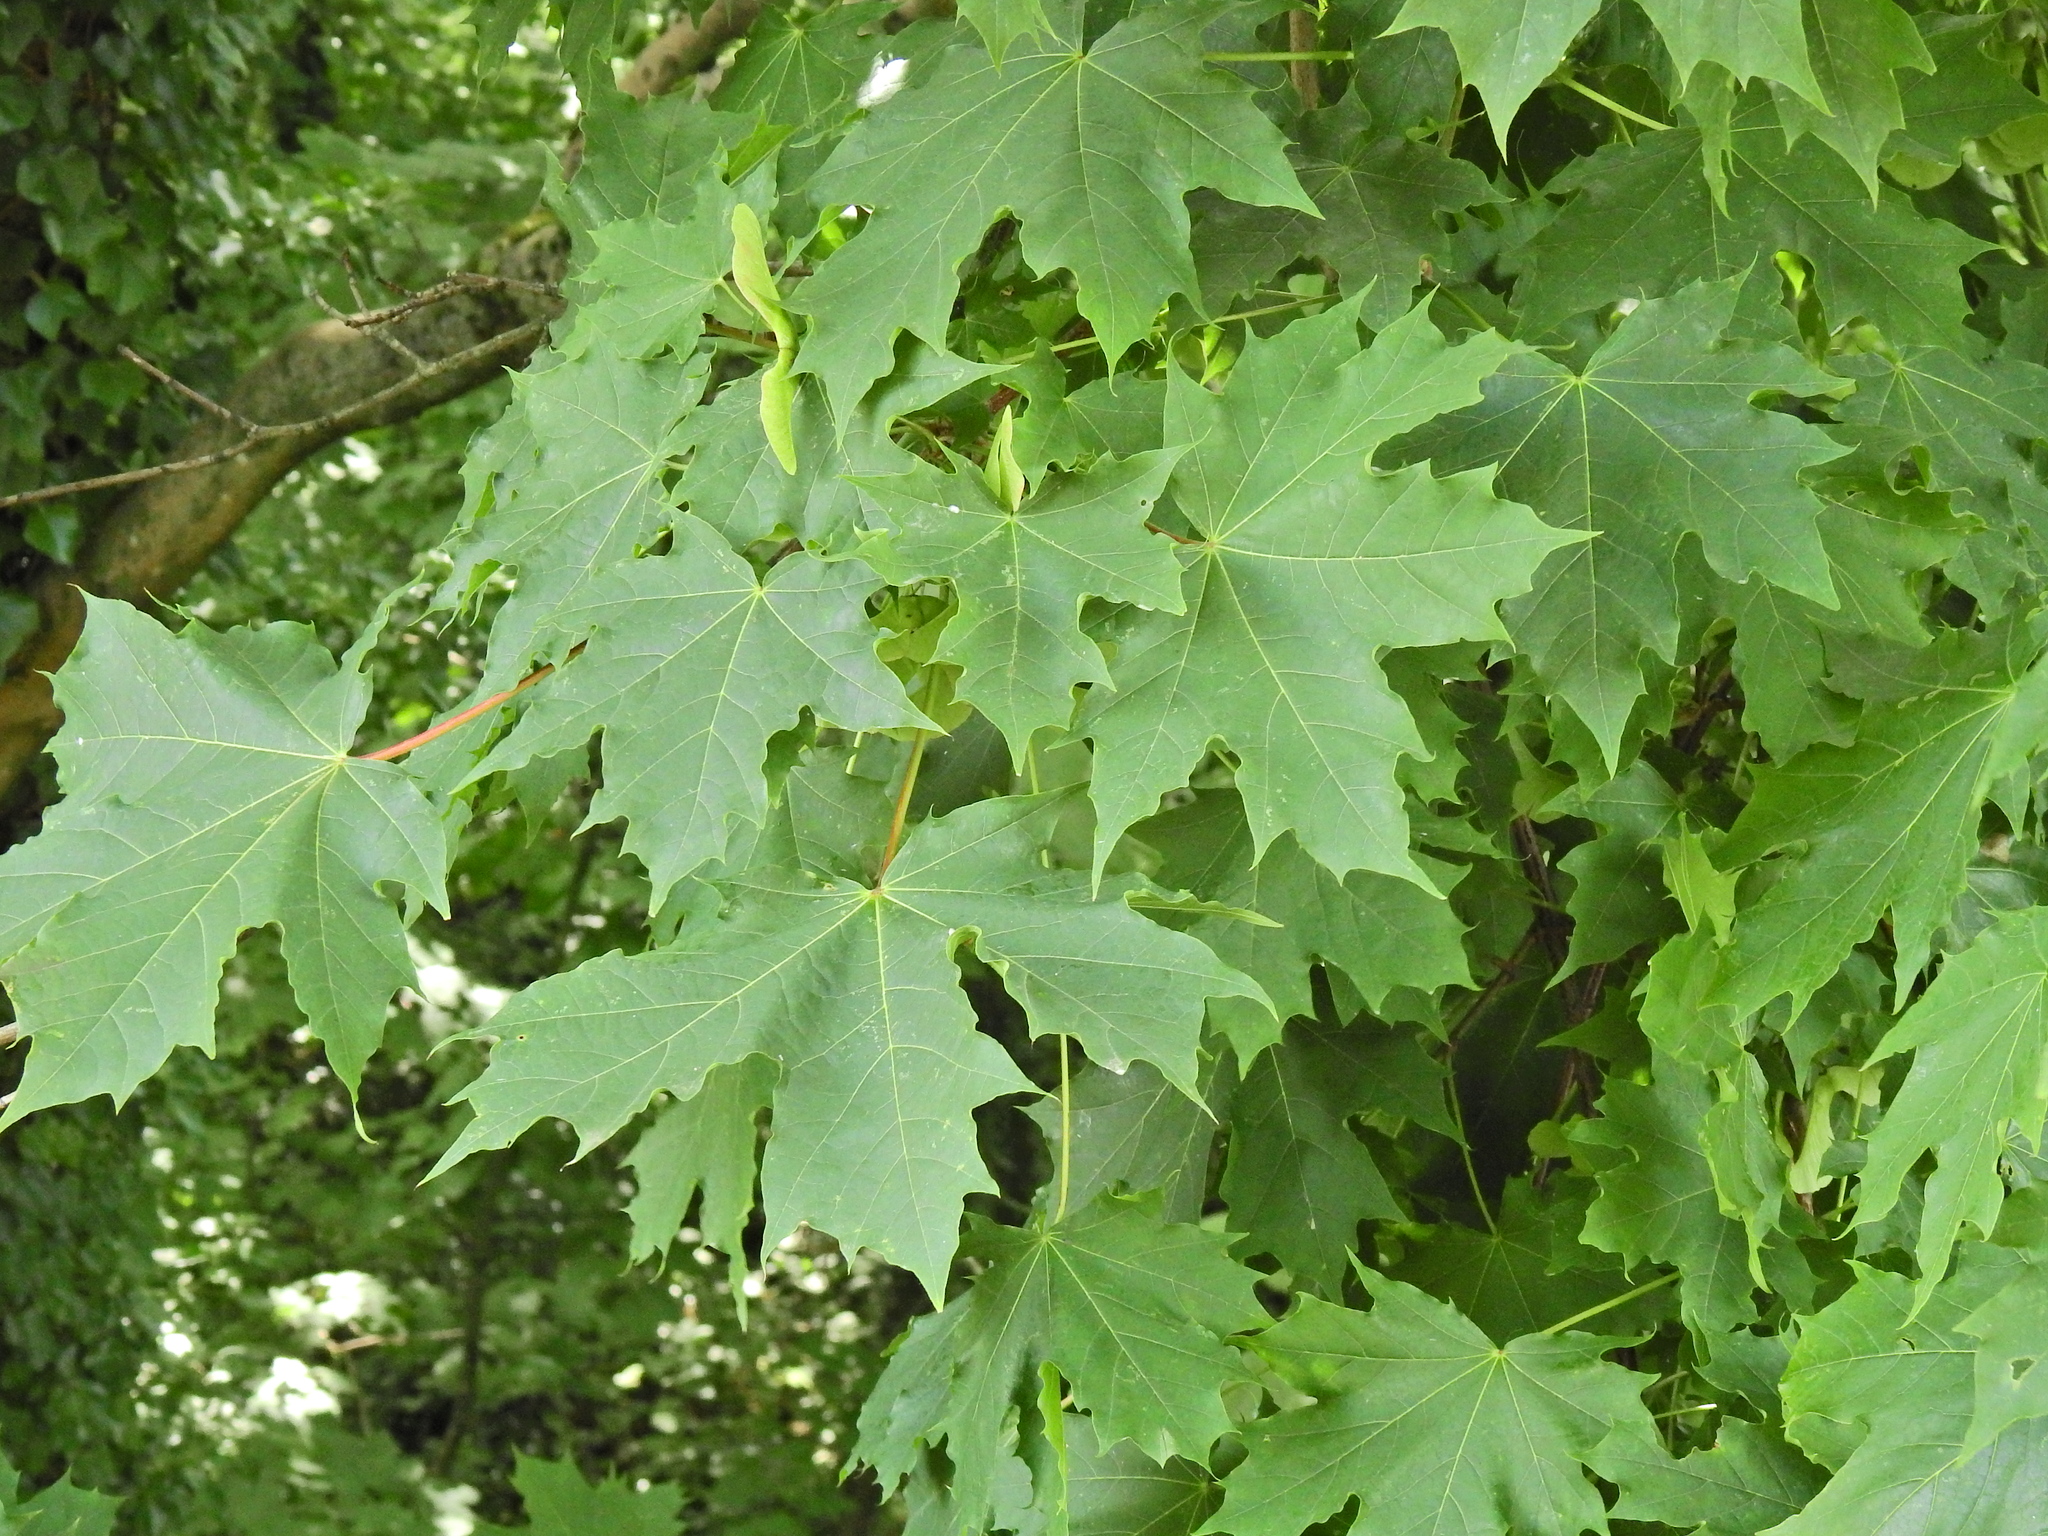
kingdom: Plantae
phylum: Tracheophyta
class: Magnoliopsida
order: Sapindales
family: Sapindaceae
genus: Acer
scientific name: Acer platanoides
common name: Norway maple
